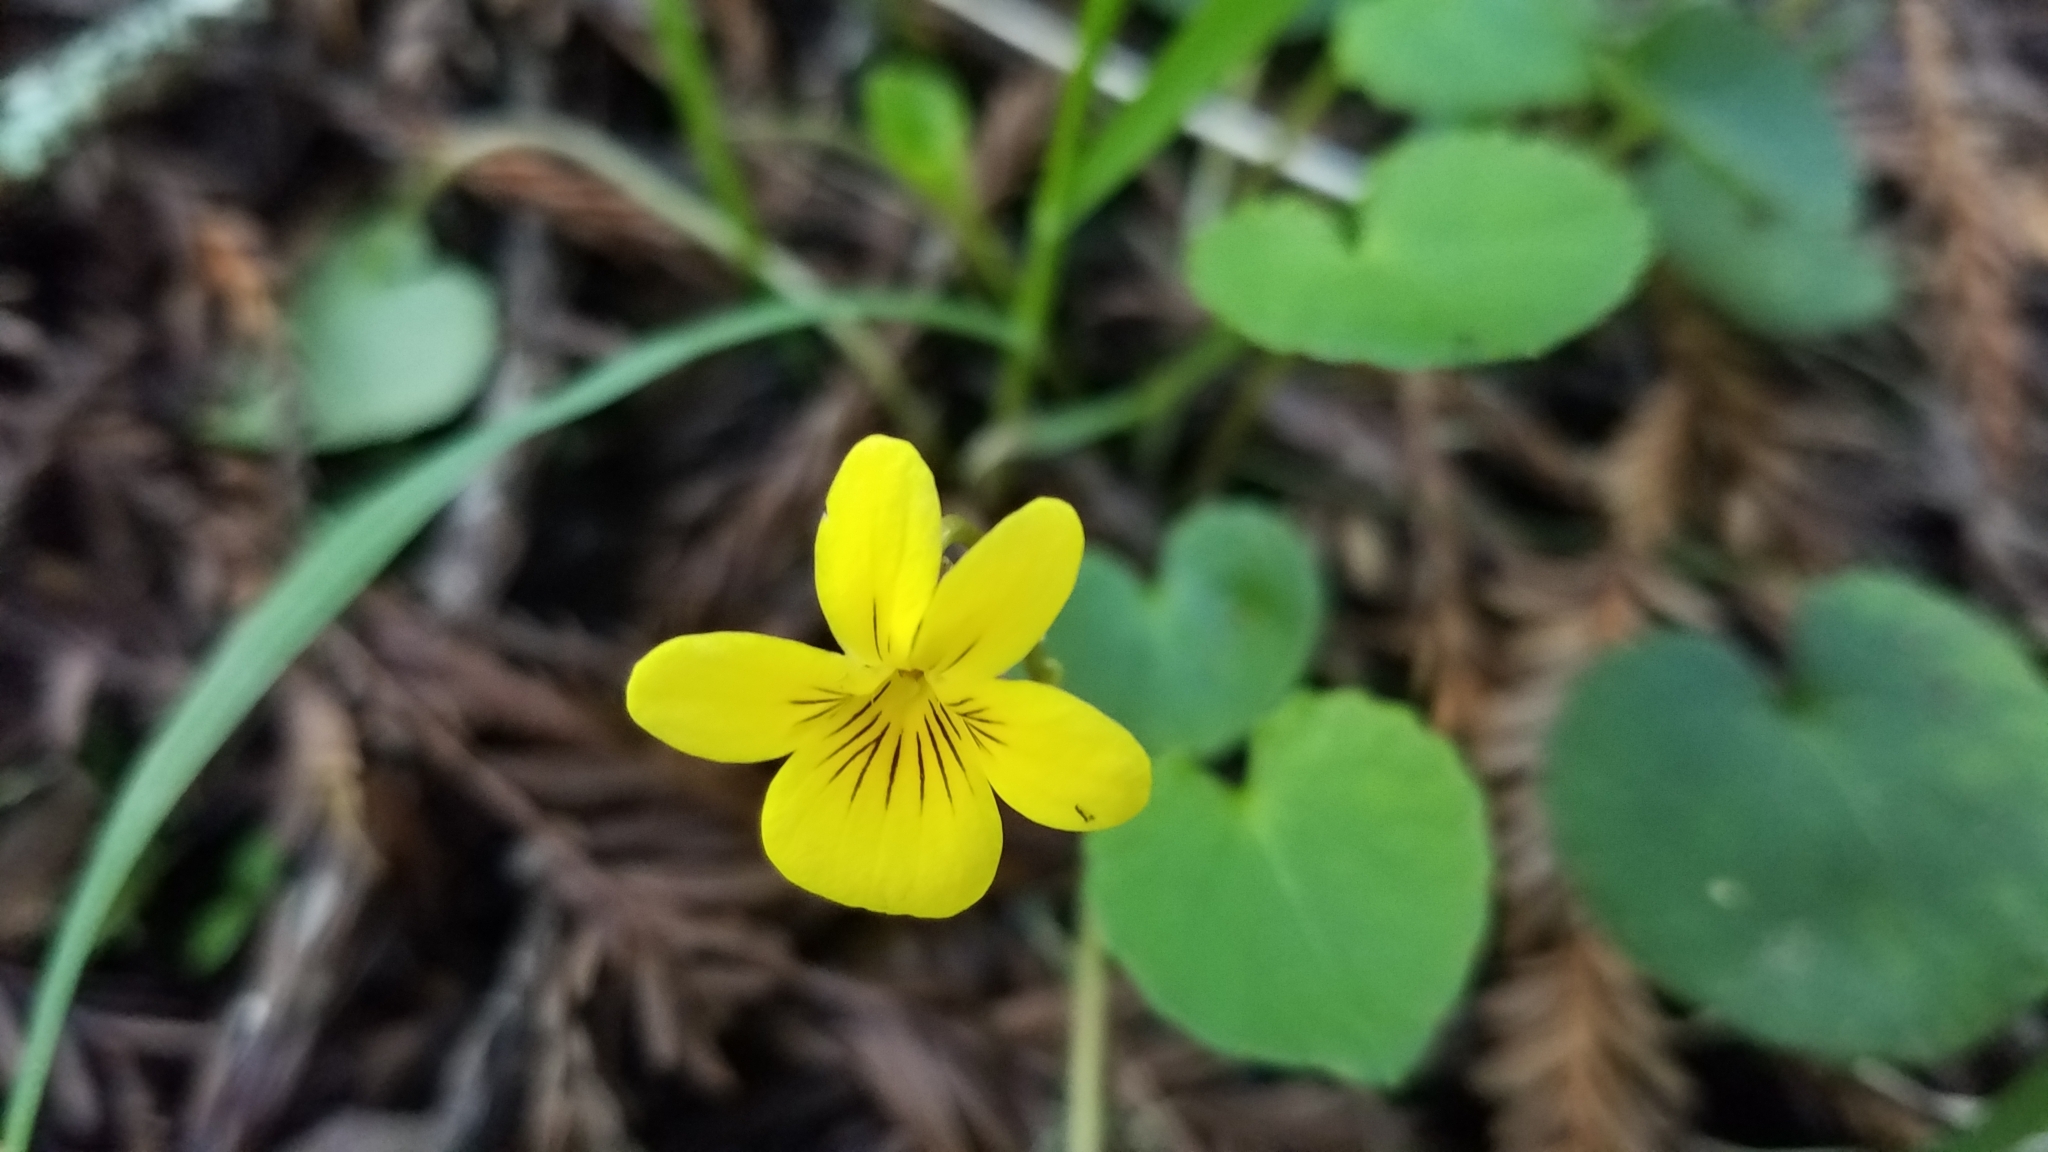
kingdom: Plantae
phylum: Tracheophyta
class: Magnoliopsida
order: Malpighiales
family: Violaceae
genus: Viola
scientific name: Viola sempervirens
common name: Evergreen violet
